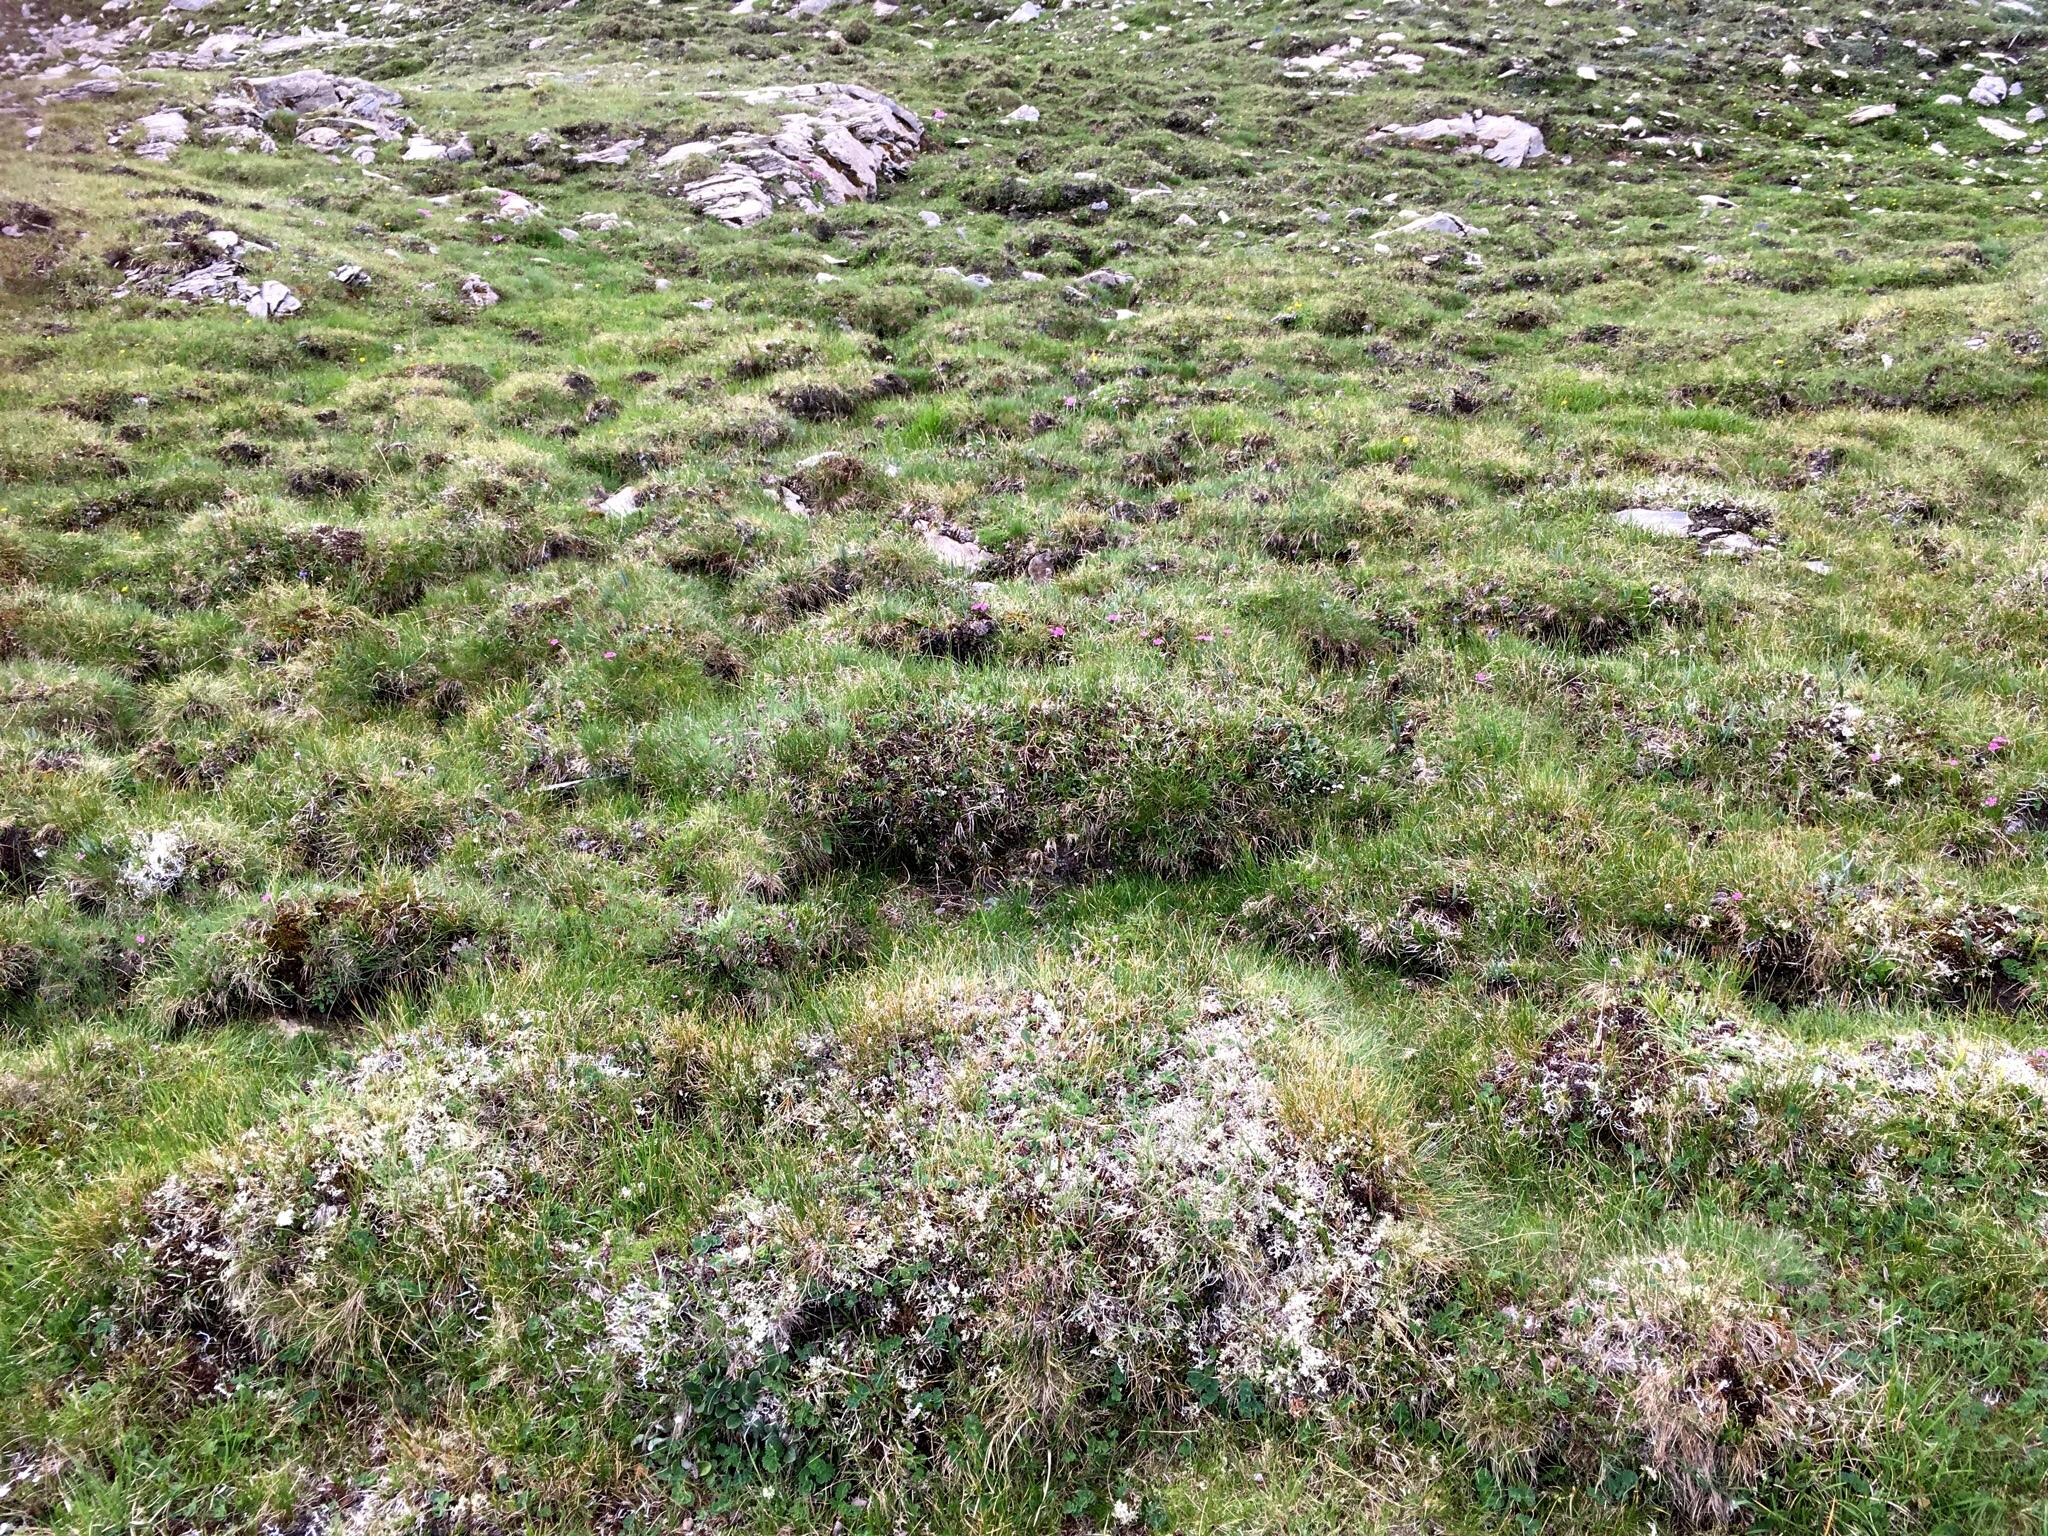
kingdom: Plantae
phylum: Tracheophyta
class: Magnoliopsida
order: Caryophyllales
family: Caryophyllaceae
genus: Dianthus
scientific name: Dianthus glacialis
